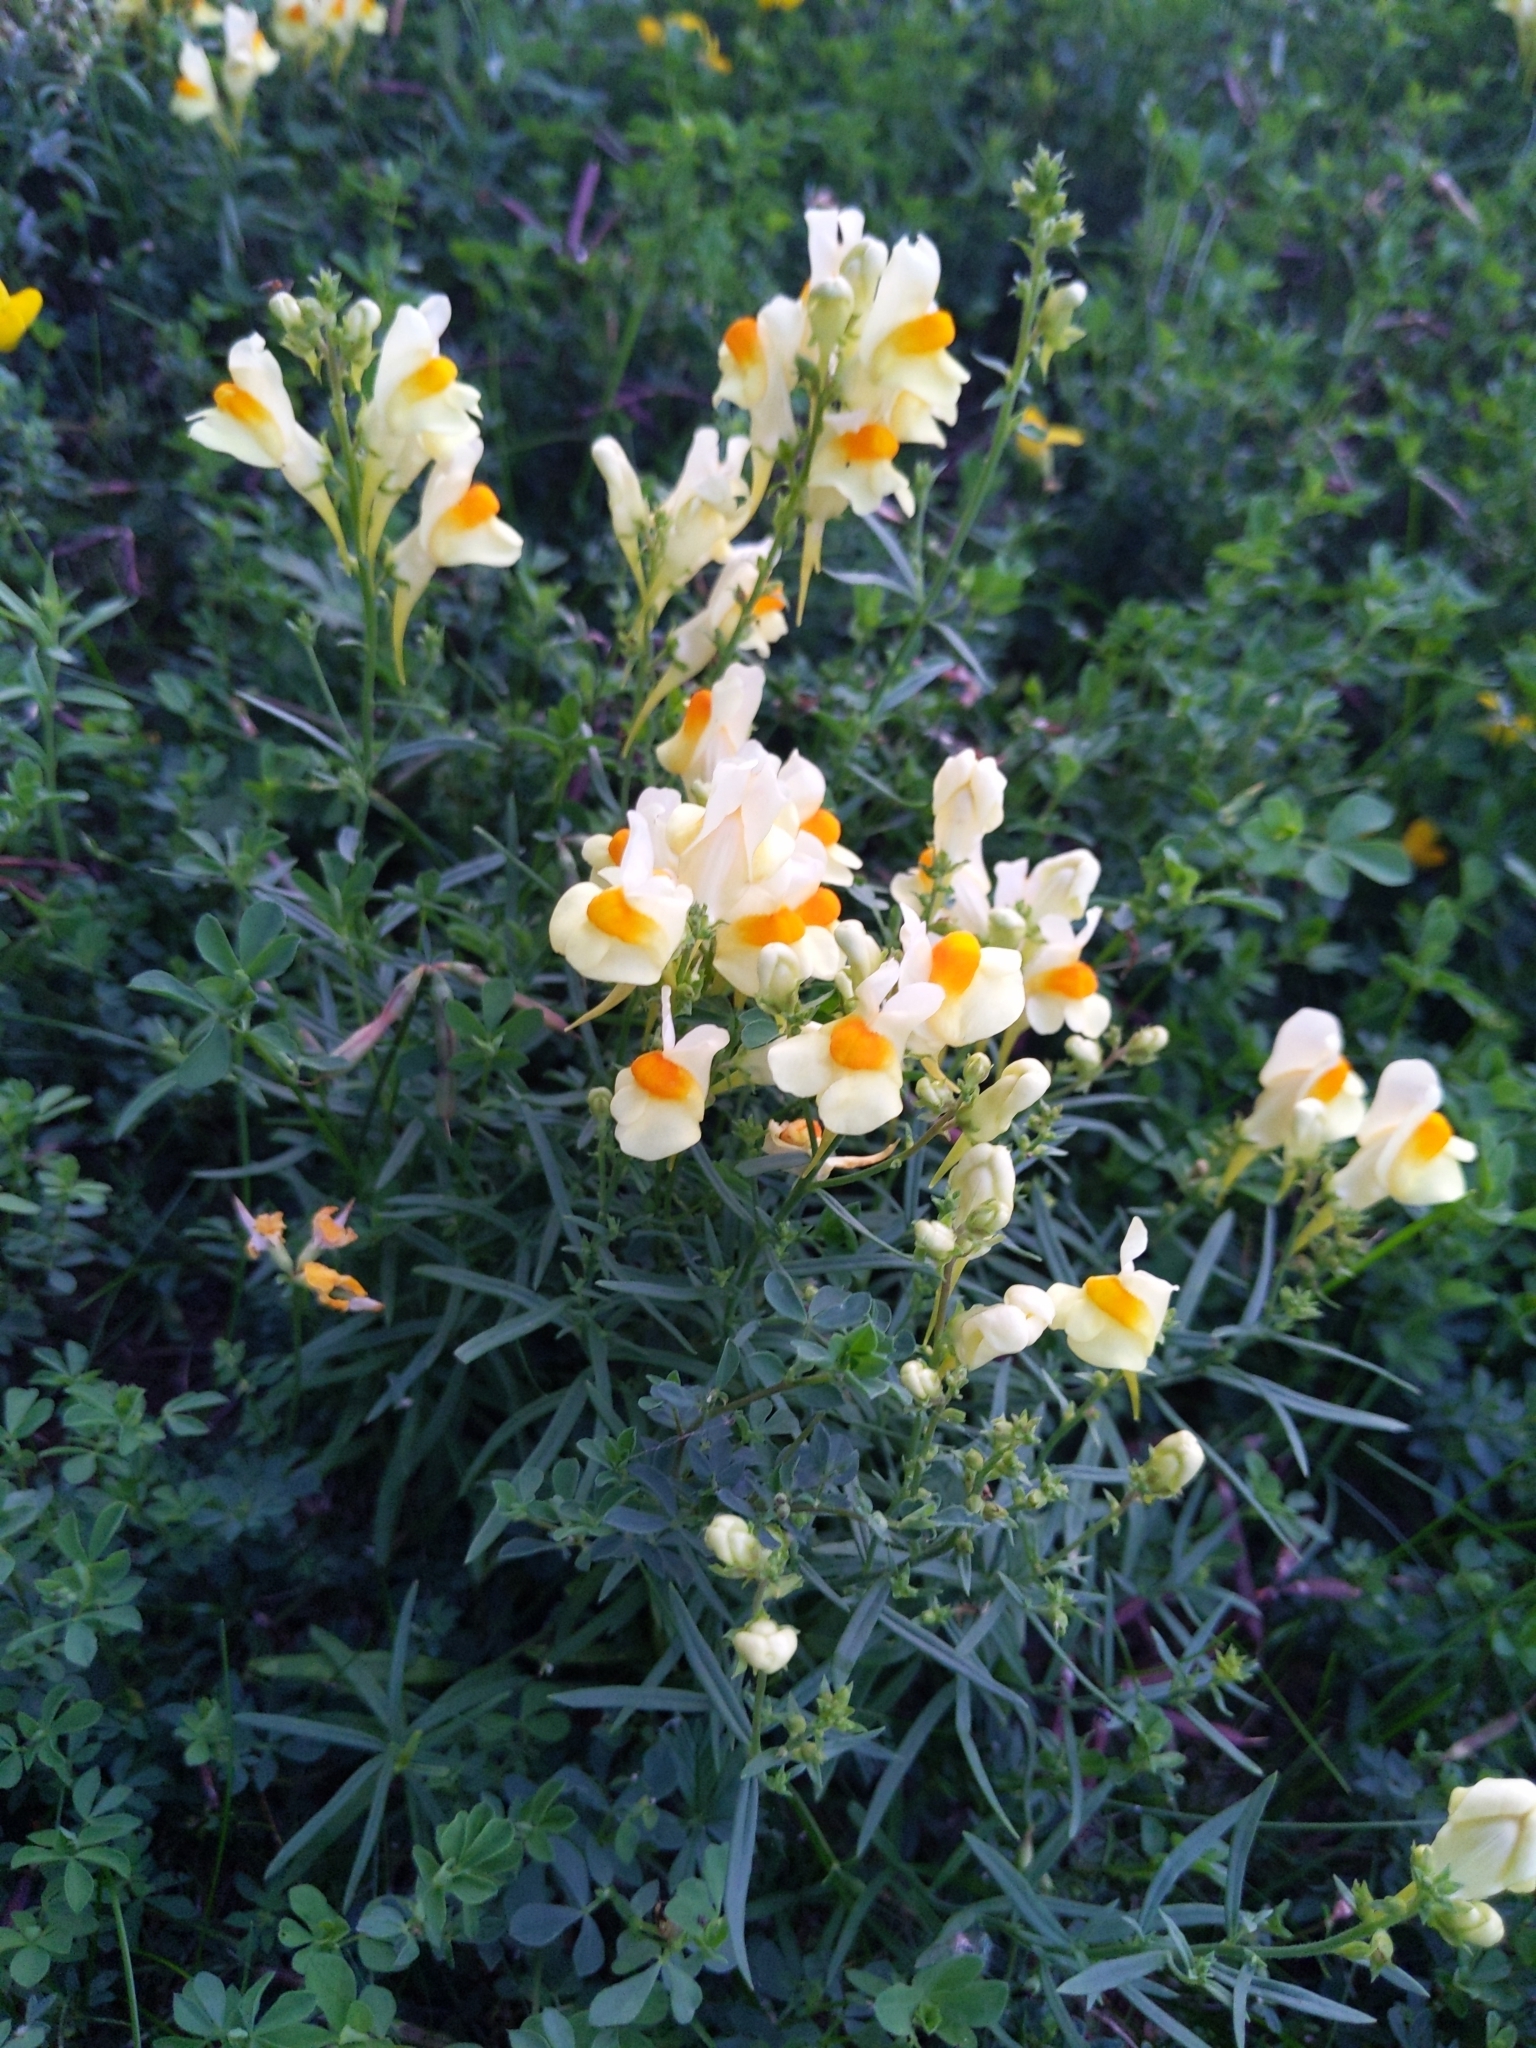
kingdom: Plantae
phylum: Tracheophyta
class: Magnoliopsida
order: Lamiales
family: Plantaginaceae
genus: Linaria
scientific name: Linaria vulgaris
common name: Butter and eggs
